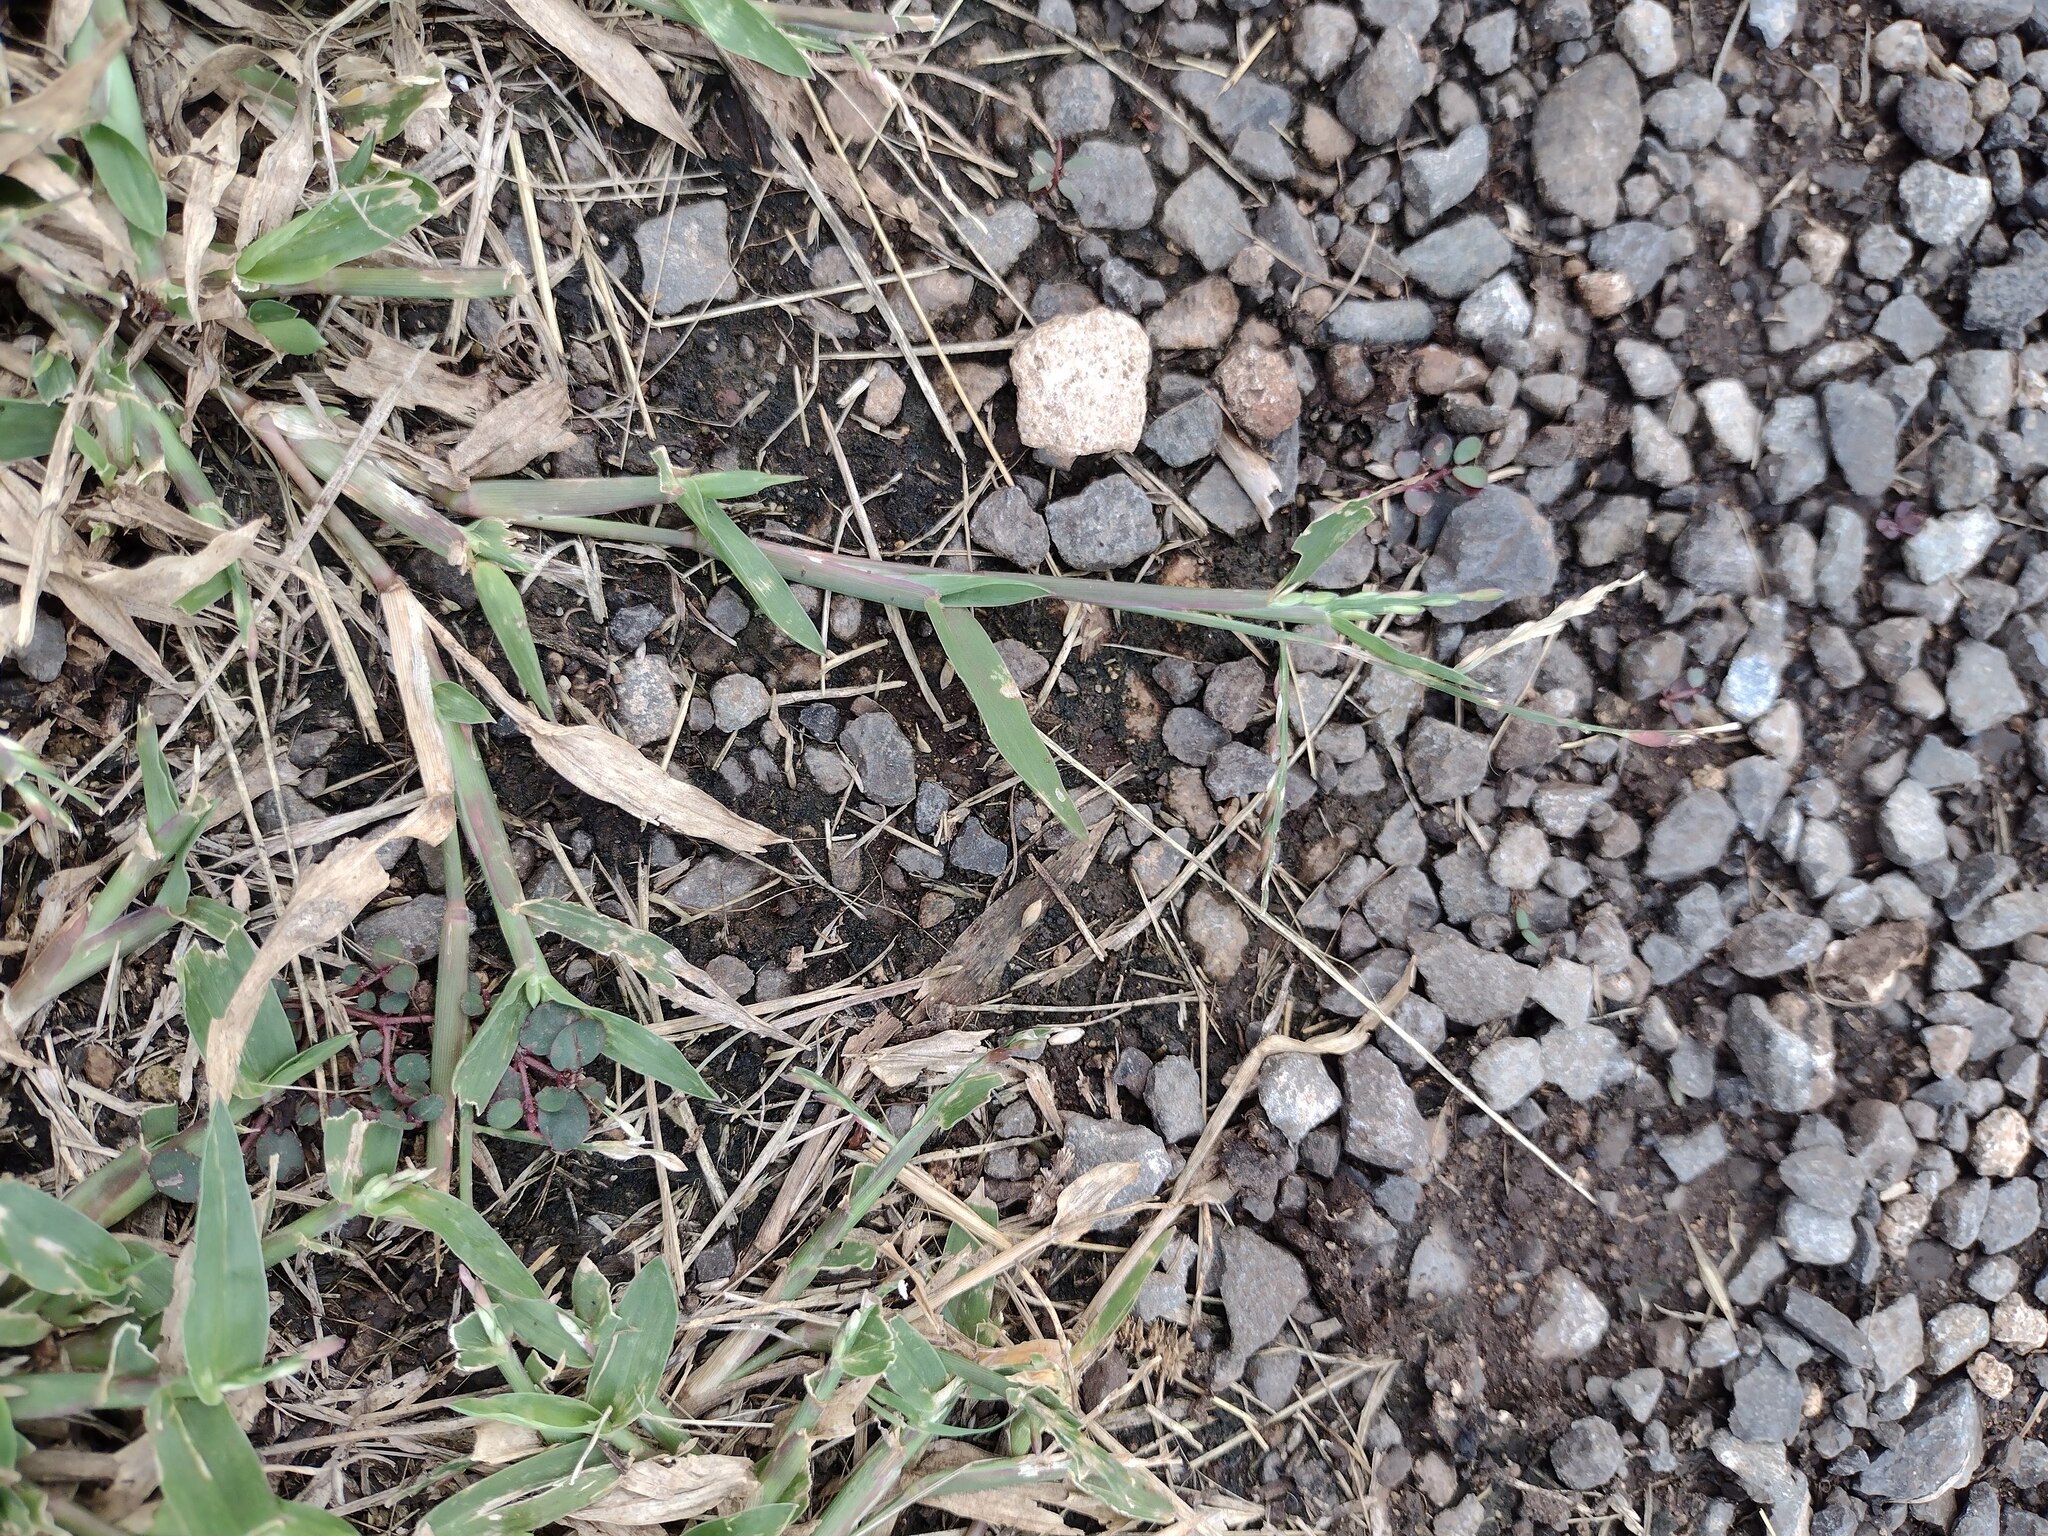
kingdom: Plantae
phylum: Tracheophyta
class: Liliopsida
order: Poales
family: Poaceae
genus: Urochloa
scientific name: Urochloa distachyos
